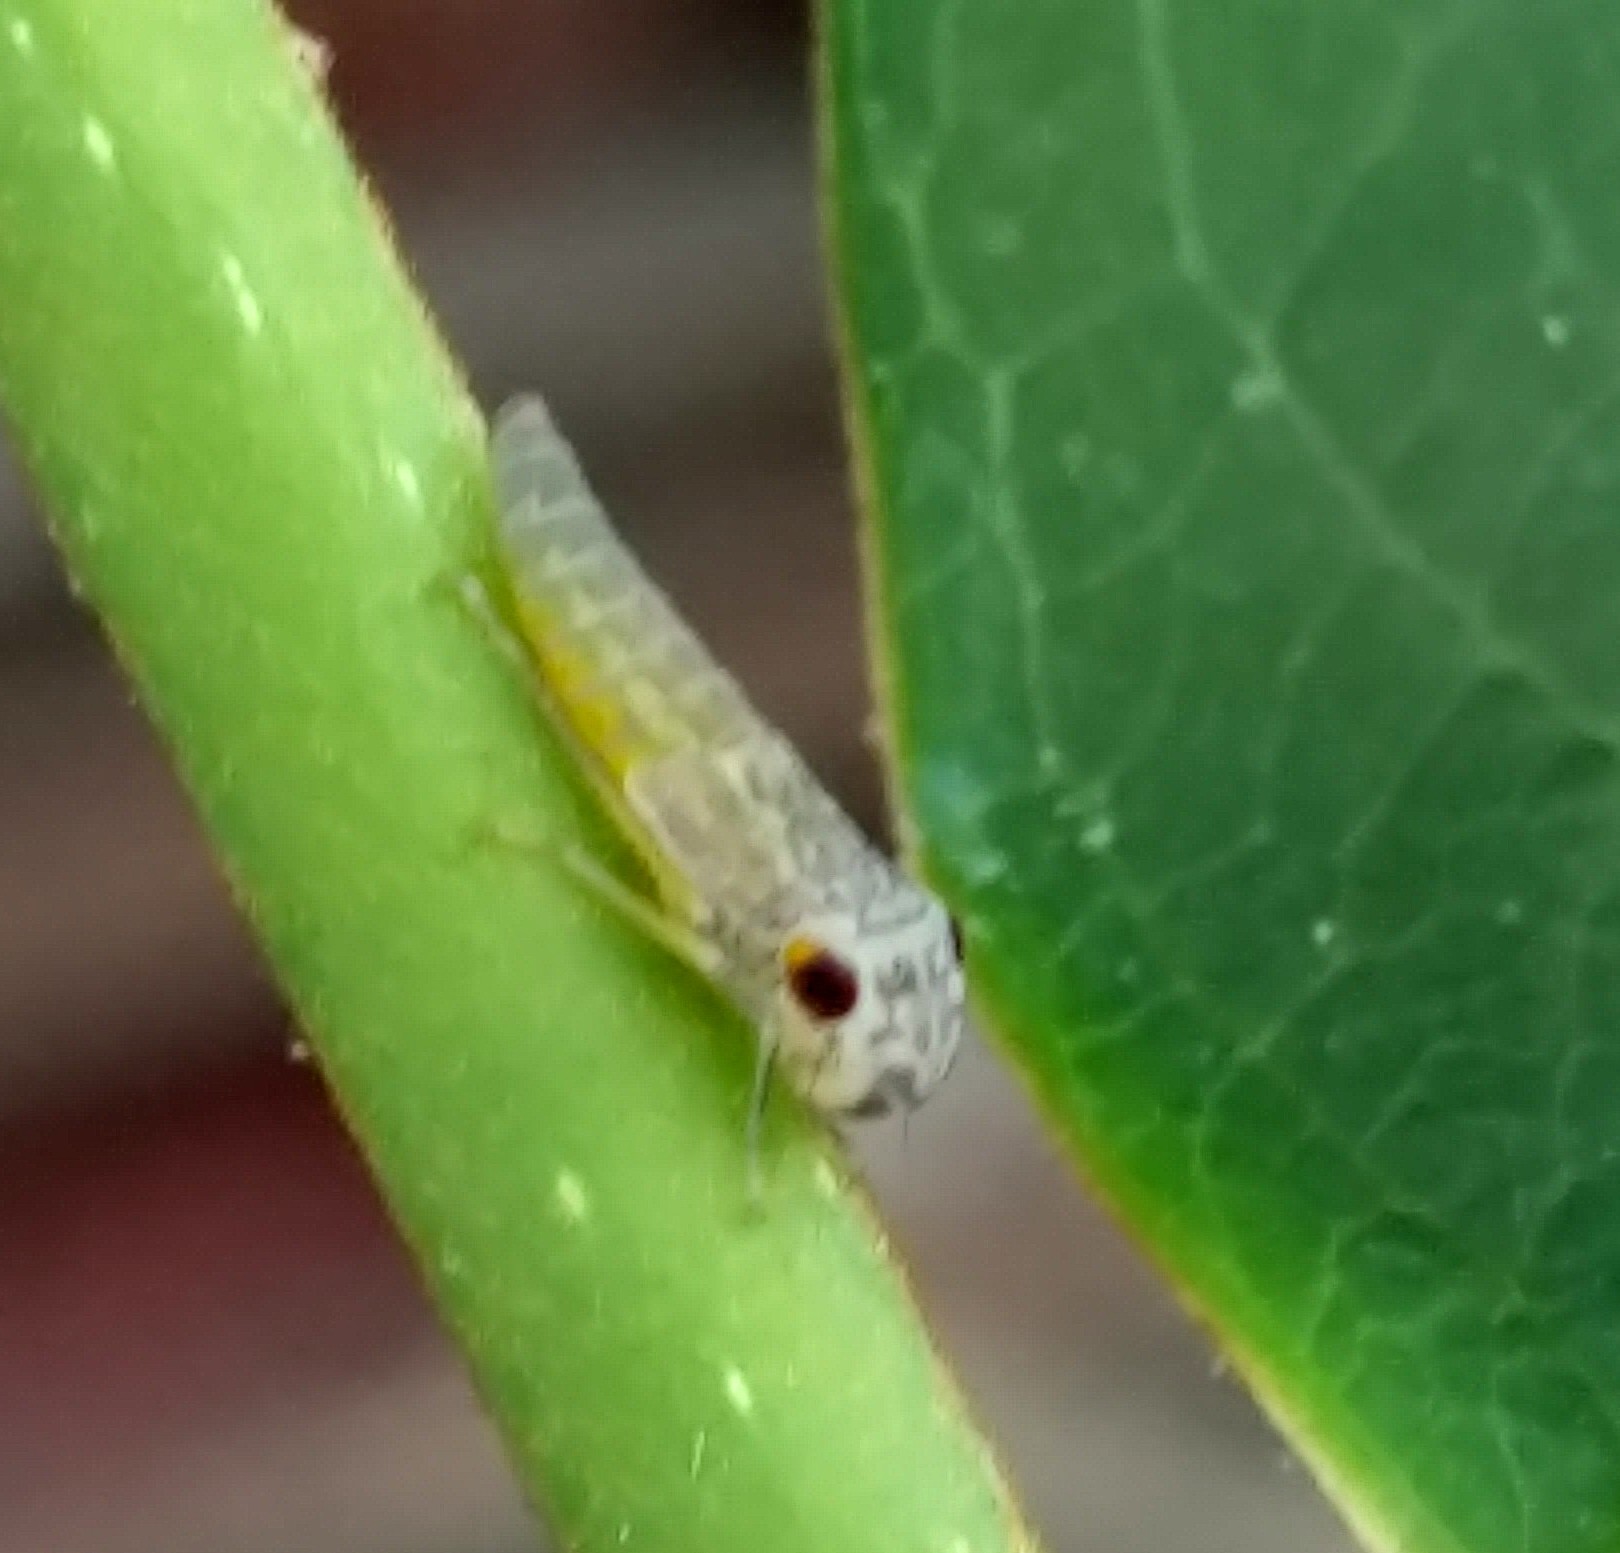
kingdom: Animalia
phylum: Arthropoda
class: Insecta
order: Hemiptera
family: Cicadellidae
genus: Oncometopia
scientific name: Oncometopia orbona
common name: Broad-headed sharpshooter
